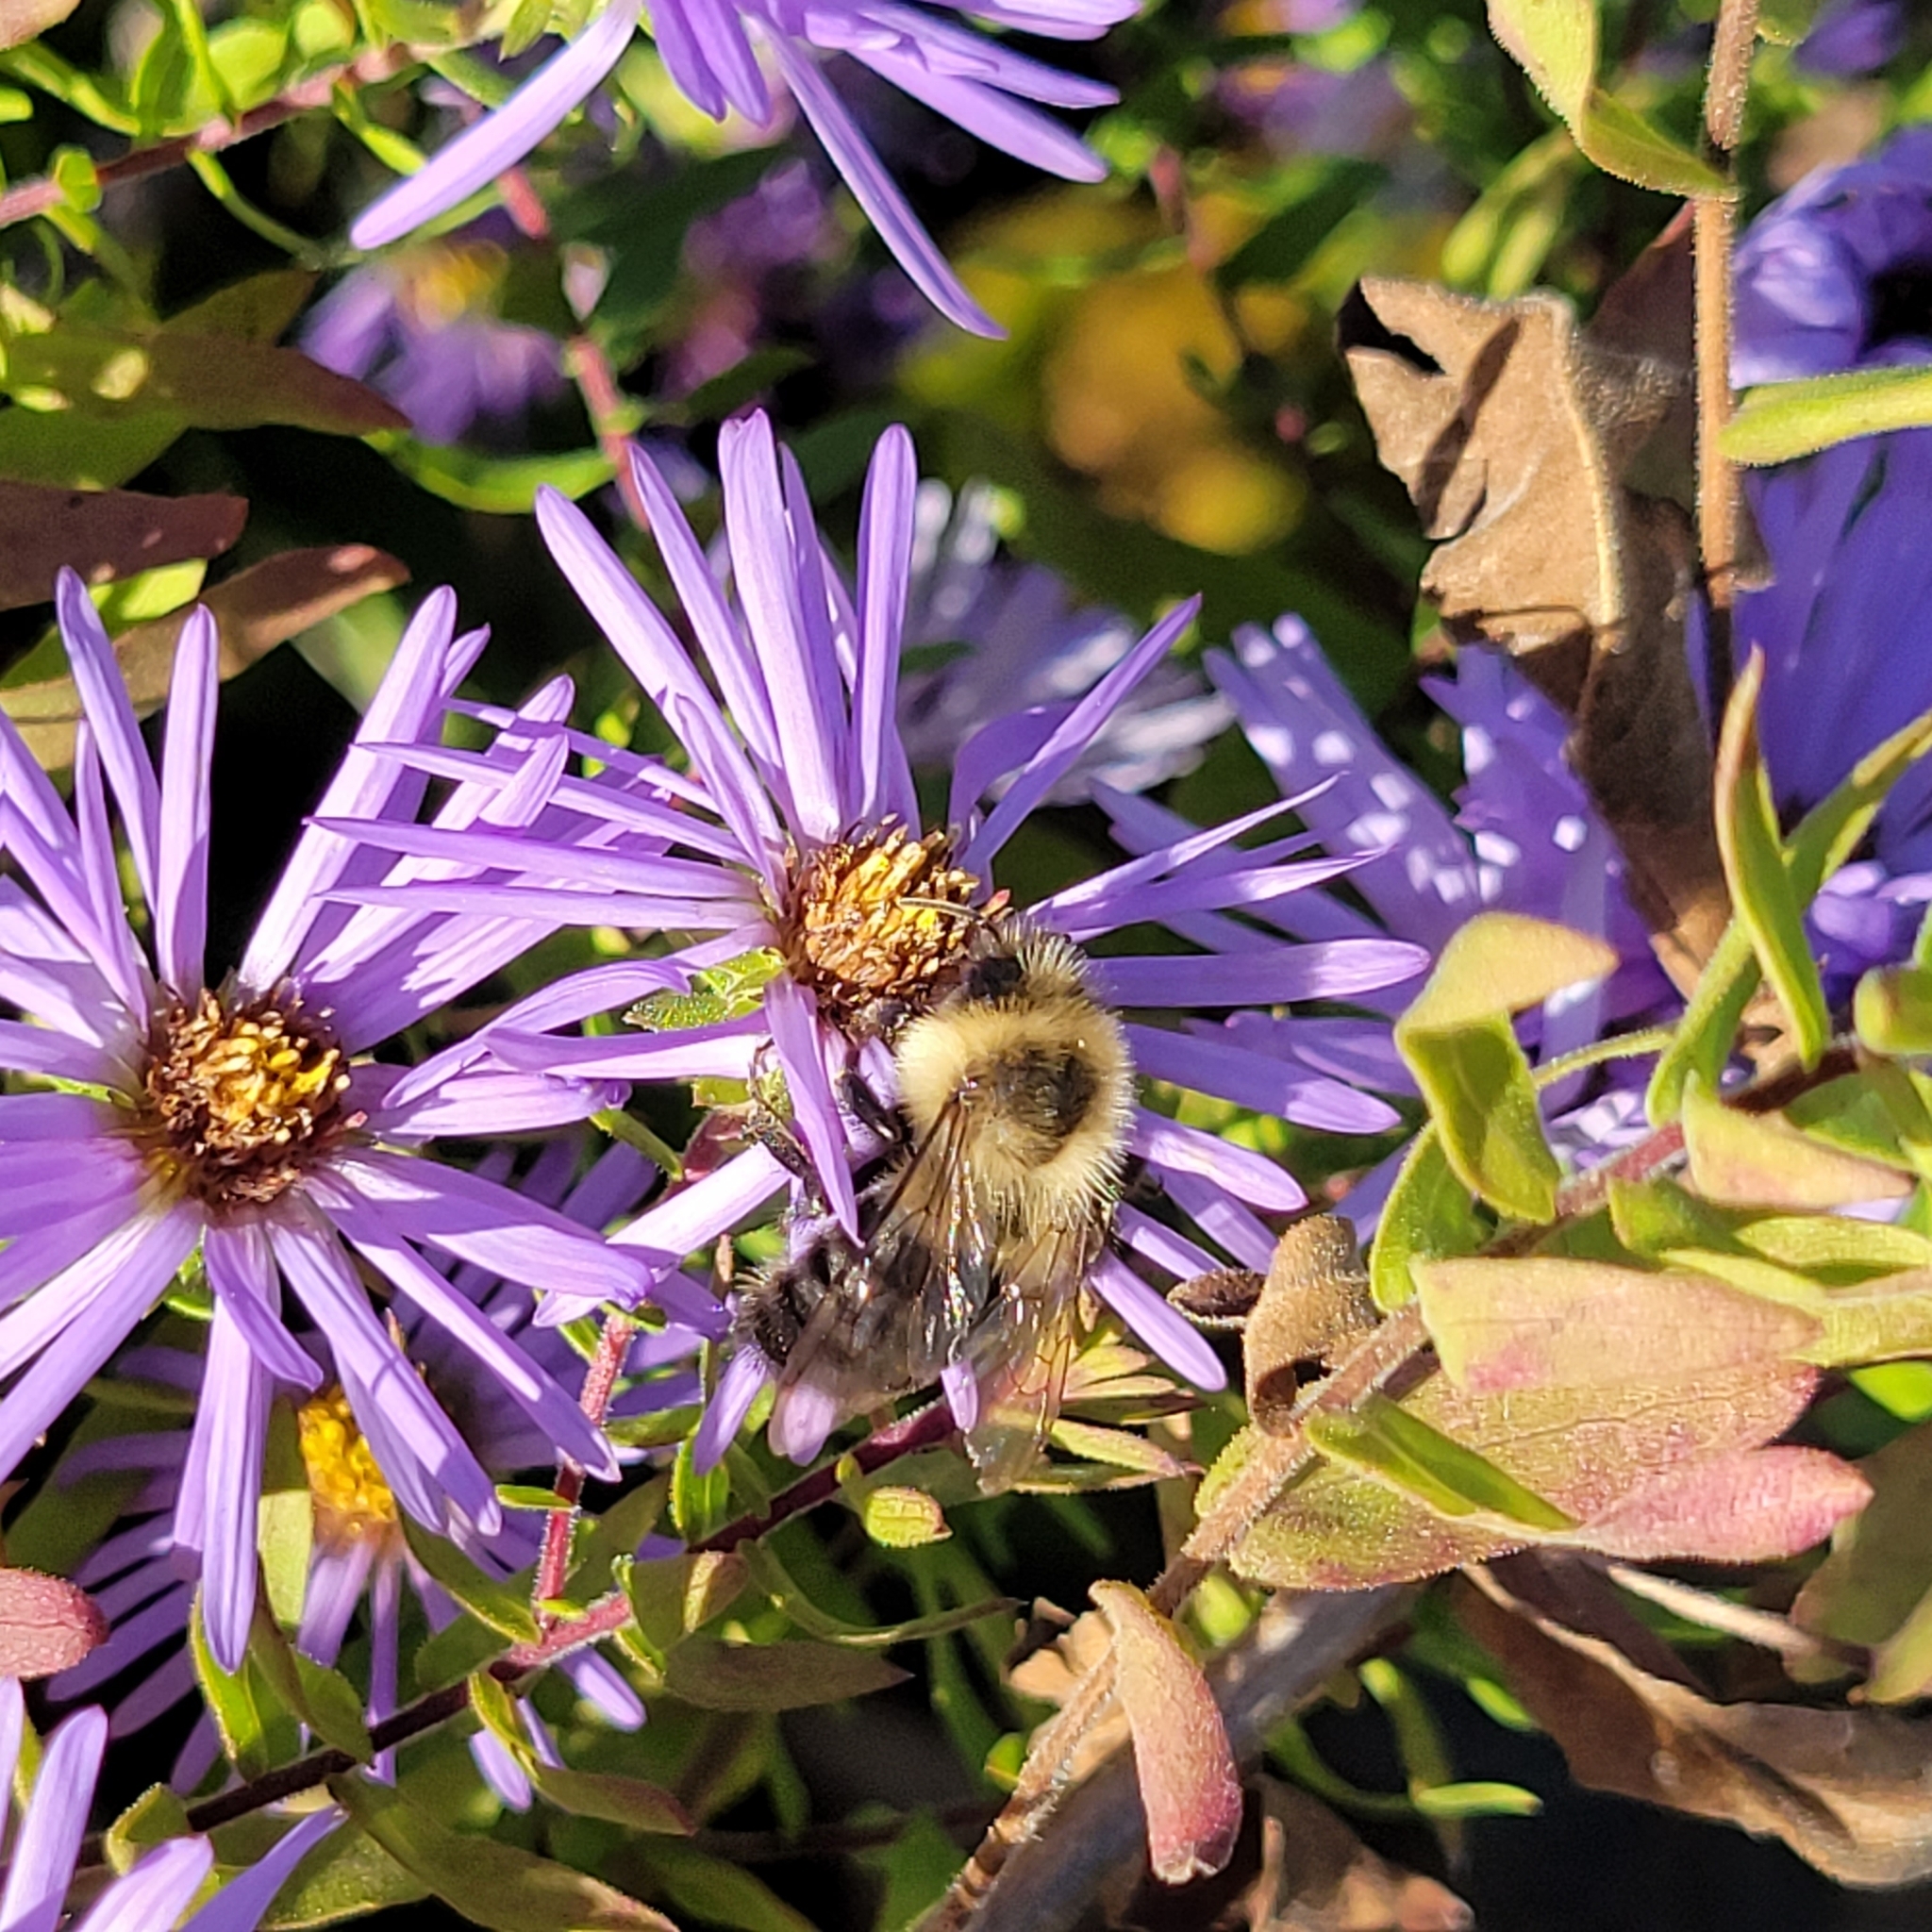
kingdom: Animalia
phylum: Arthropoda
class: Insecta
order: Hymenoptera
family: Apidae
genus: Bombus
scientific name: Bombus impatiens
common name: Common eastern bumble bee
